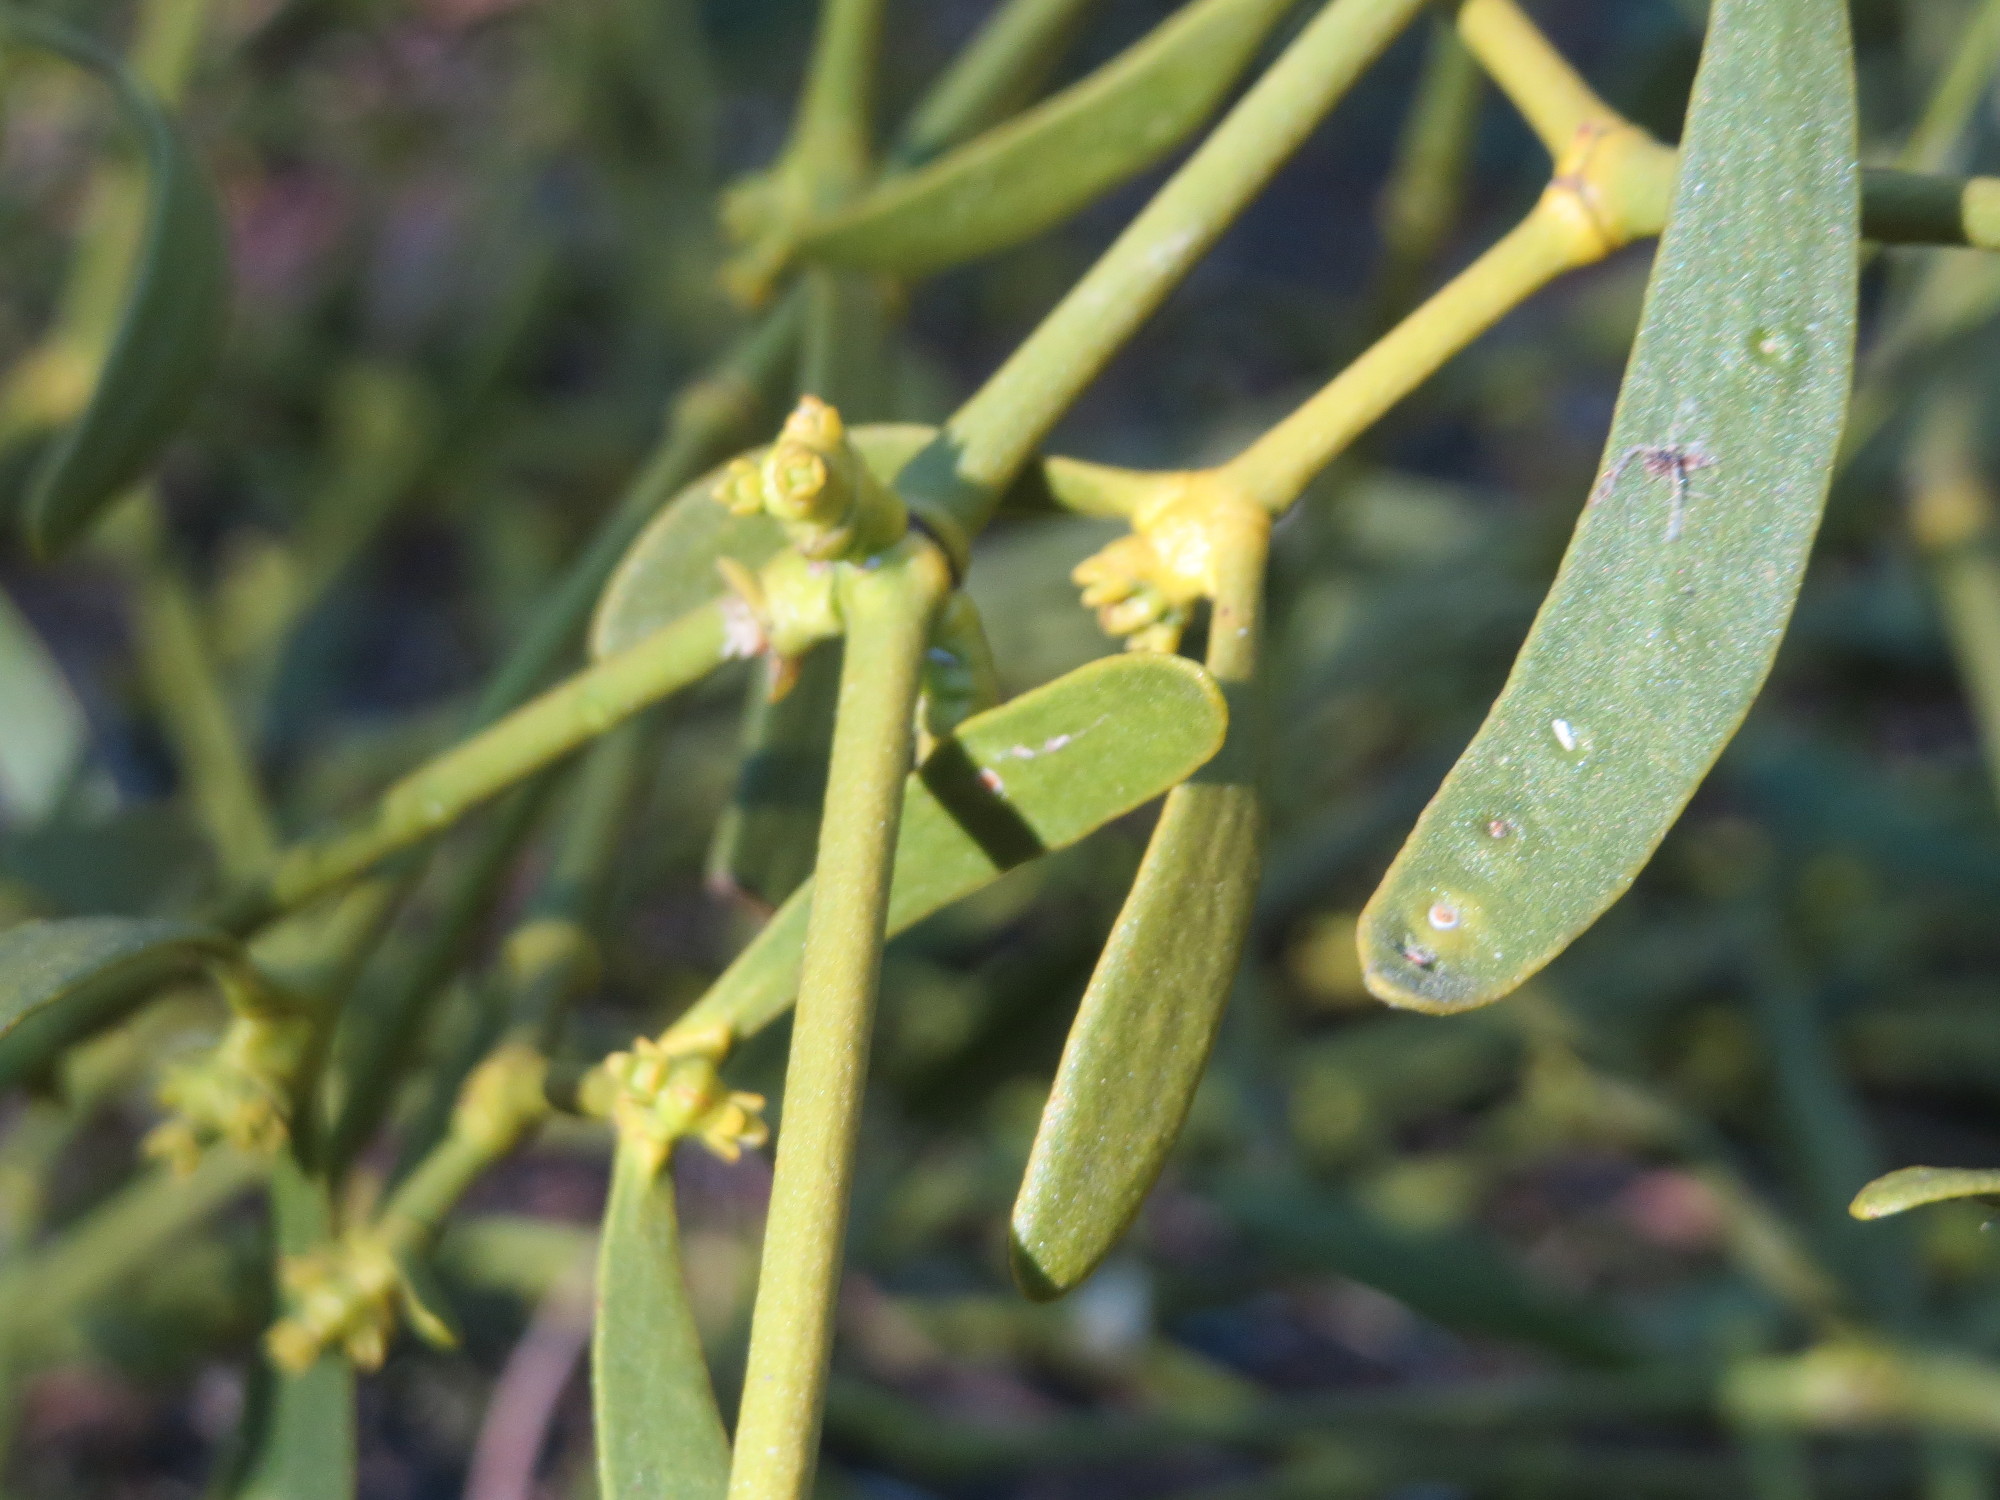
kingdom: Plantae
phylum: Tracheophyta
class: Magnoliopsida
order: Santalales
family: Viscaceae
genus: Viscum
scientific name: Viscum album
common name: Mistletoe
